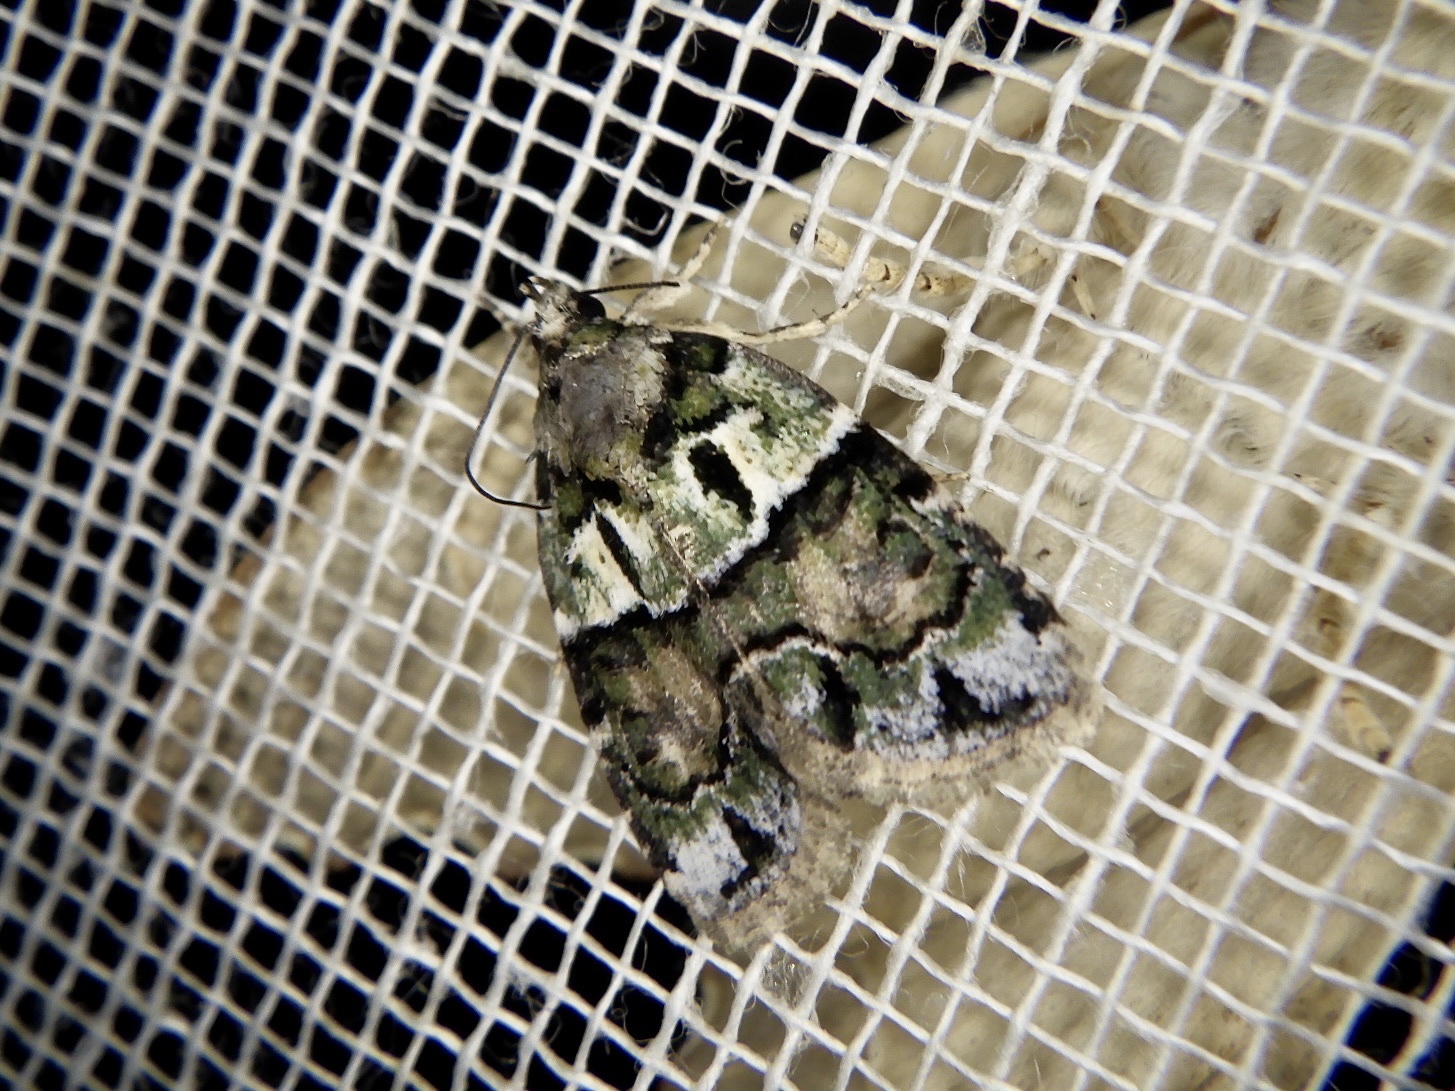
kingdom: Animalia
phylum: Arthropoda
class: Insecta
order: Lepidoptera
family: Noctuidae
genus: Cryphia
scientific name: Cryphia griseola
